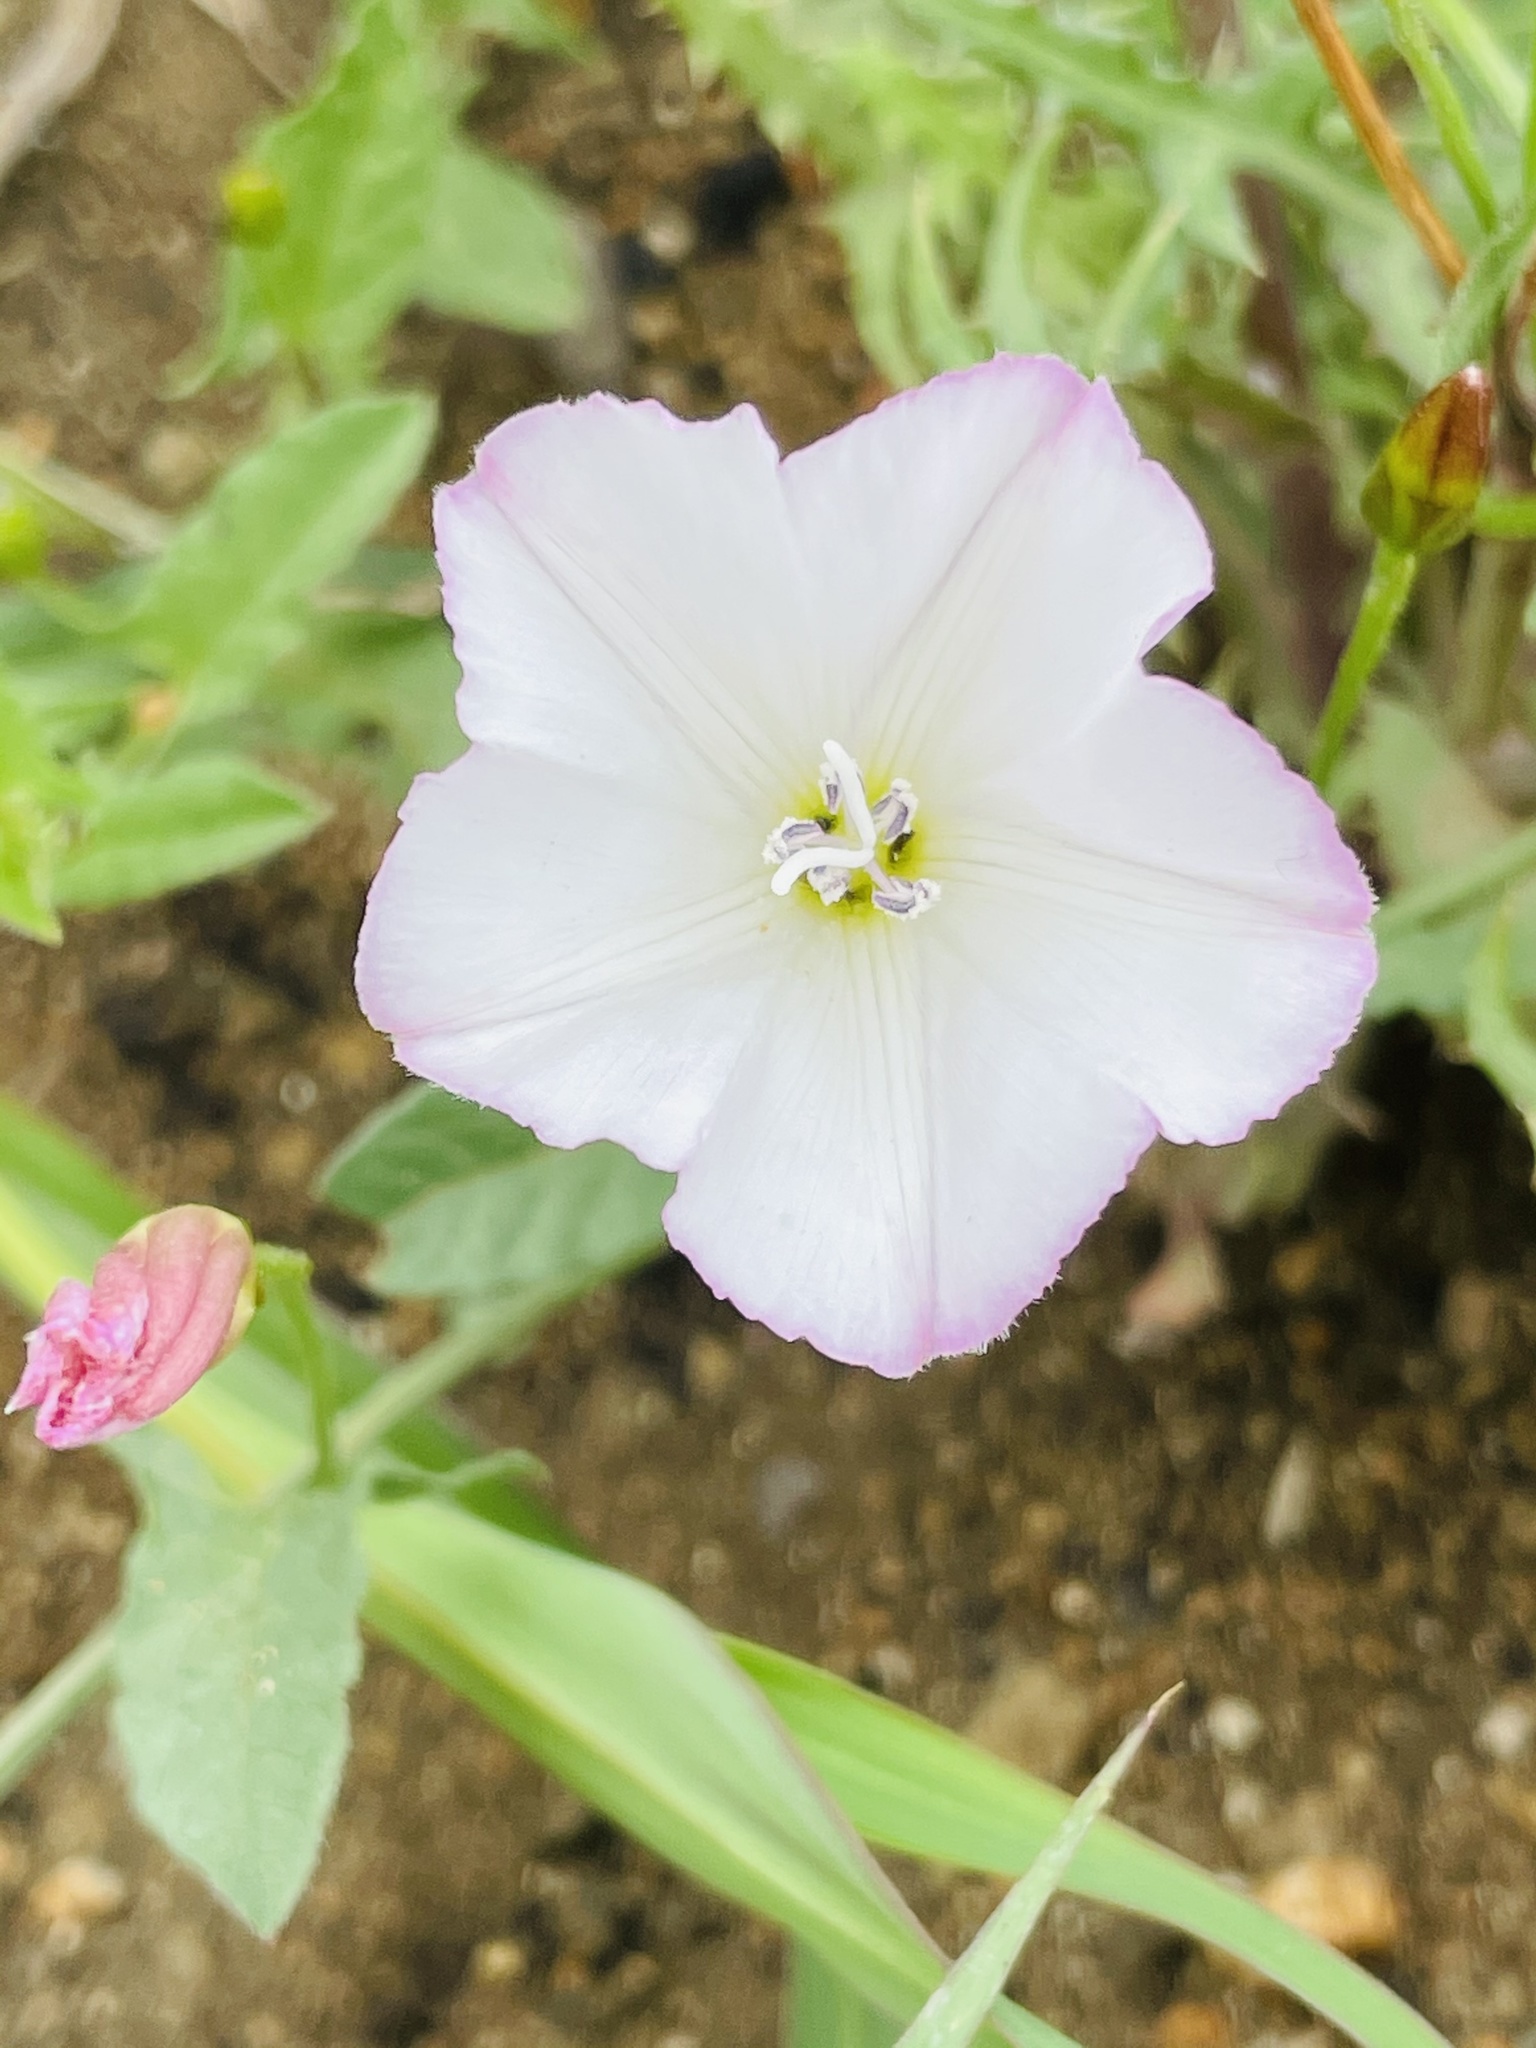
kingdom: Plantae
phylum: Tracheophyta
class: Magnoliopsida
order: Solanales
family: Convolvulaceae
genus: Convolvulus
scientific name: Convolvulus arvensis
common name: Field bindweed
